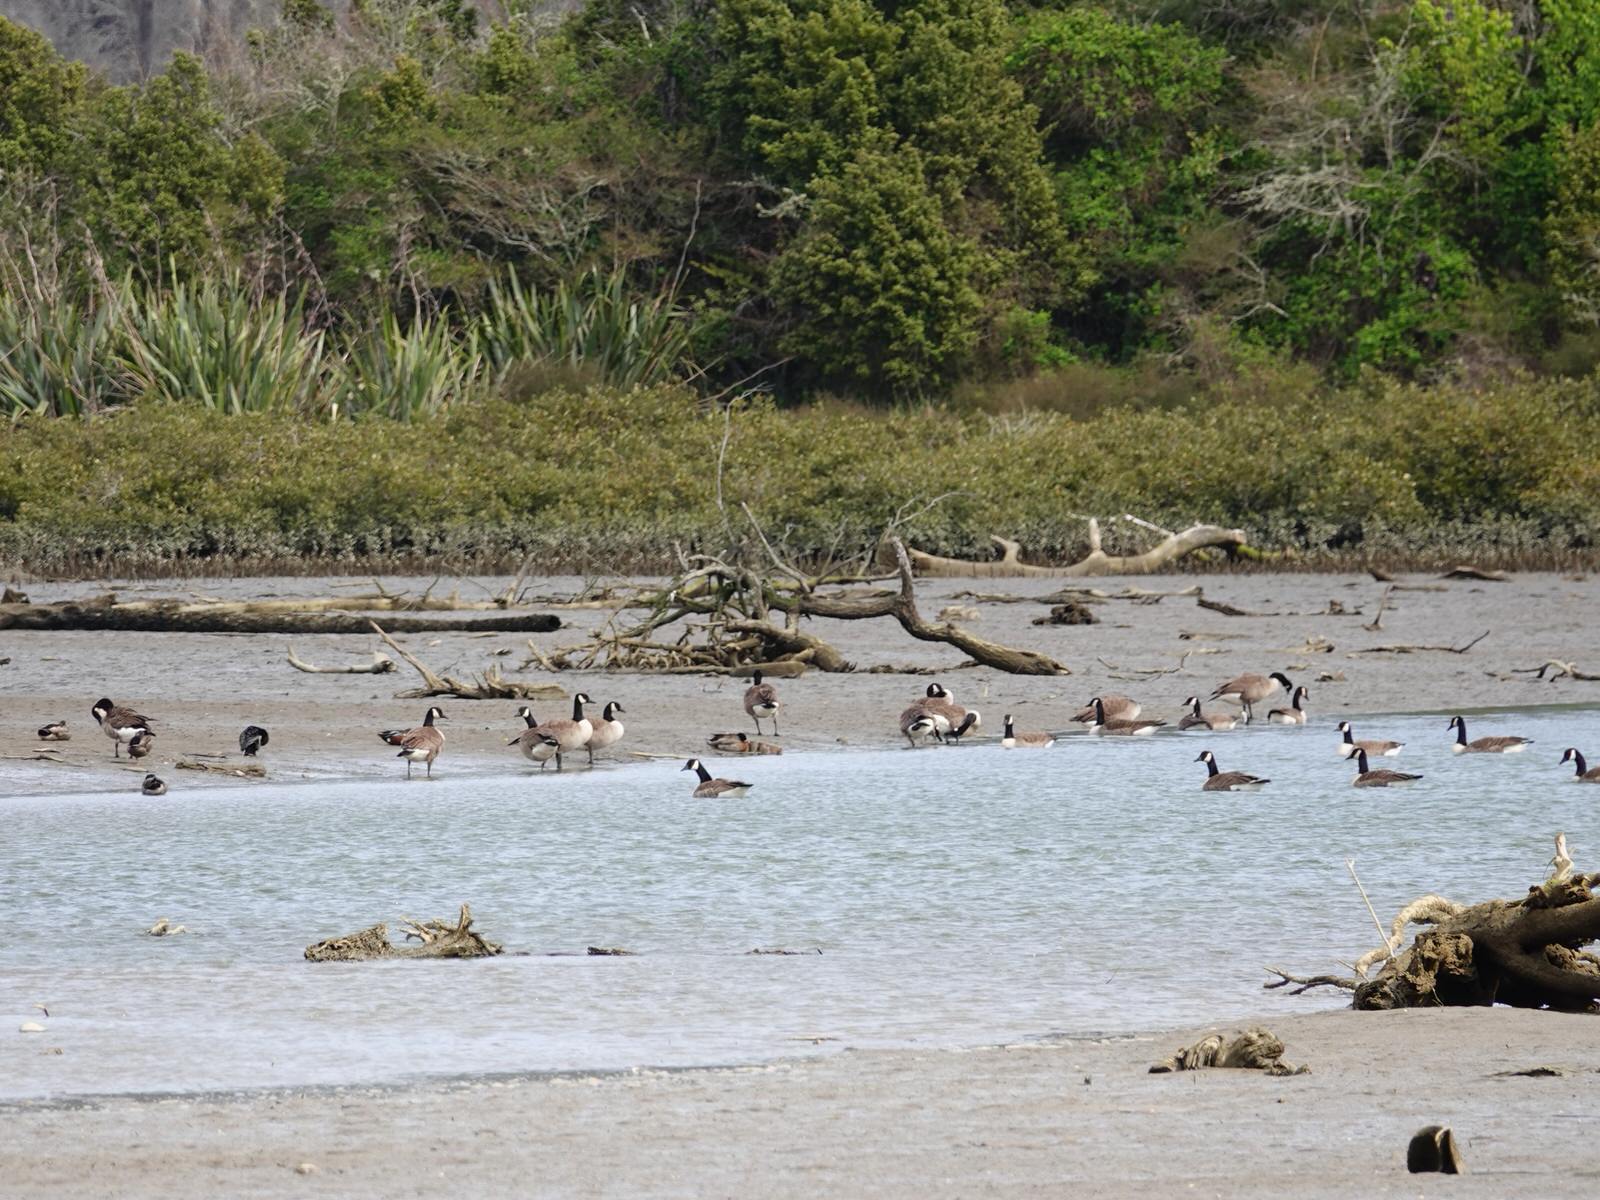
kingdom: Animalia
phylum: Chordata
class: Aves
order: Anseriformes
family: Anatidae
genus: Branta
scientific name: Branta canadensis
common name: Canada goose
